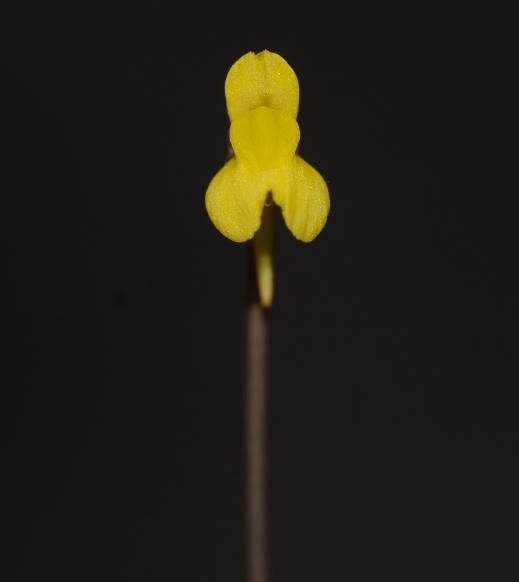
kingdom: Plantae
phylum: Tracheophyta
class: Magnoliopsida
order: Lamiales
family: Lentibulariaceae
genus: Utricularia
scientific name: Utricularia bifida
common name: Bifid bladderwort
